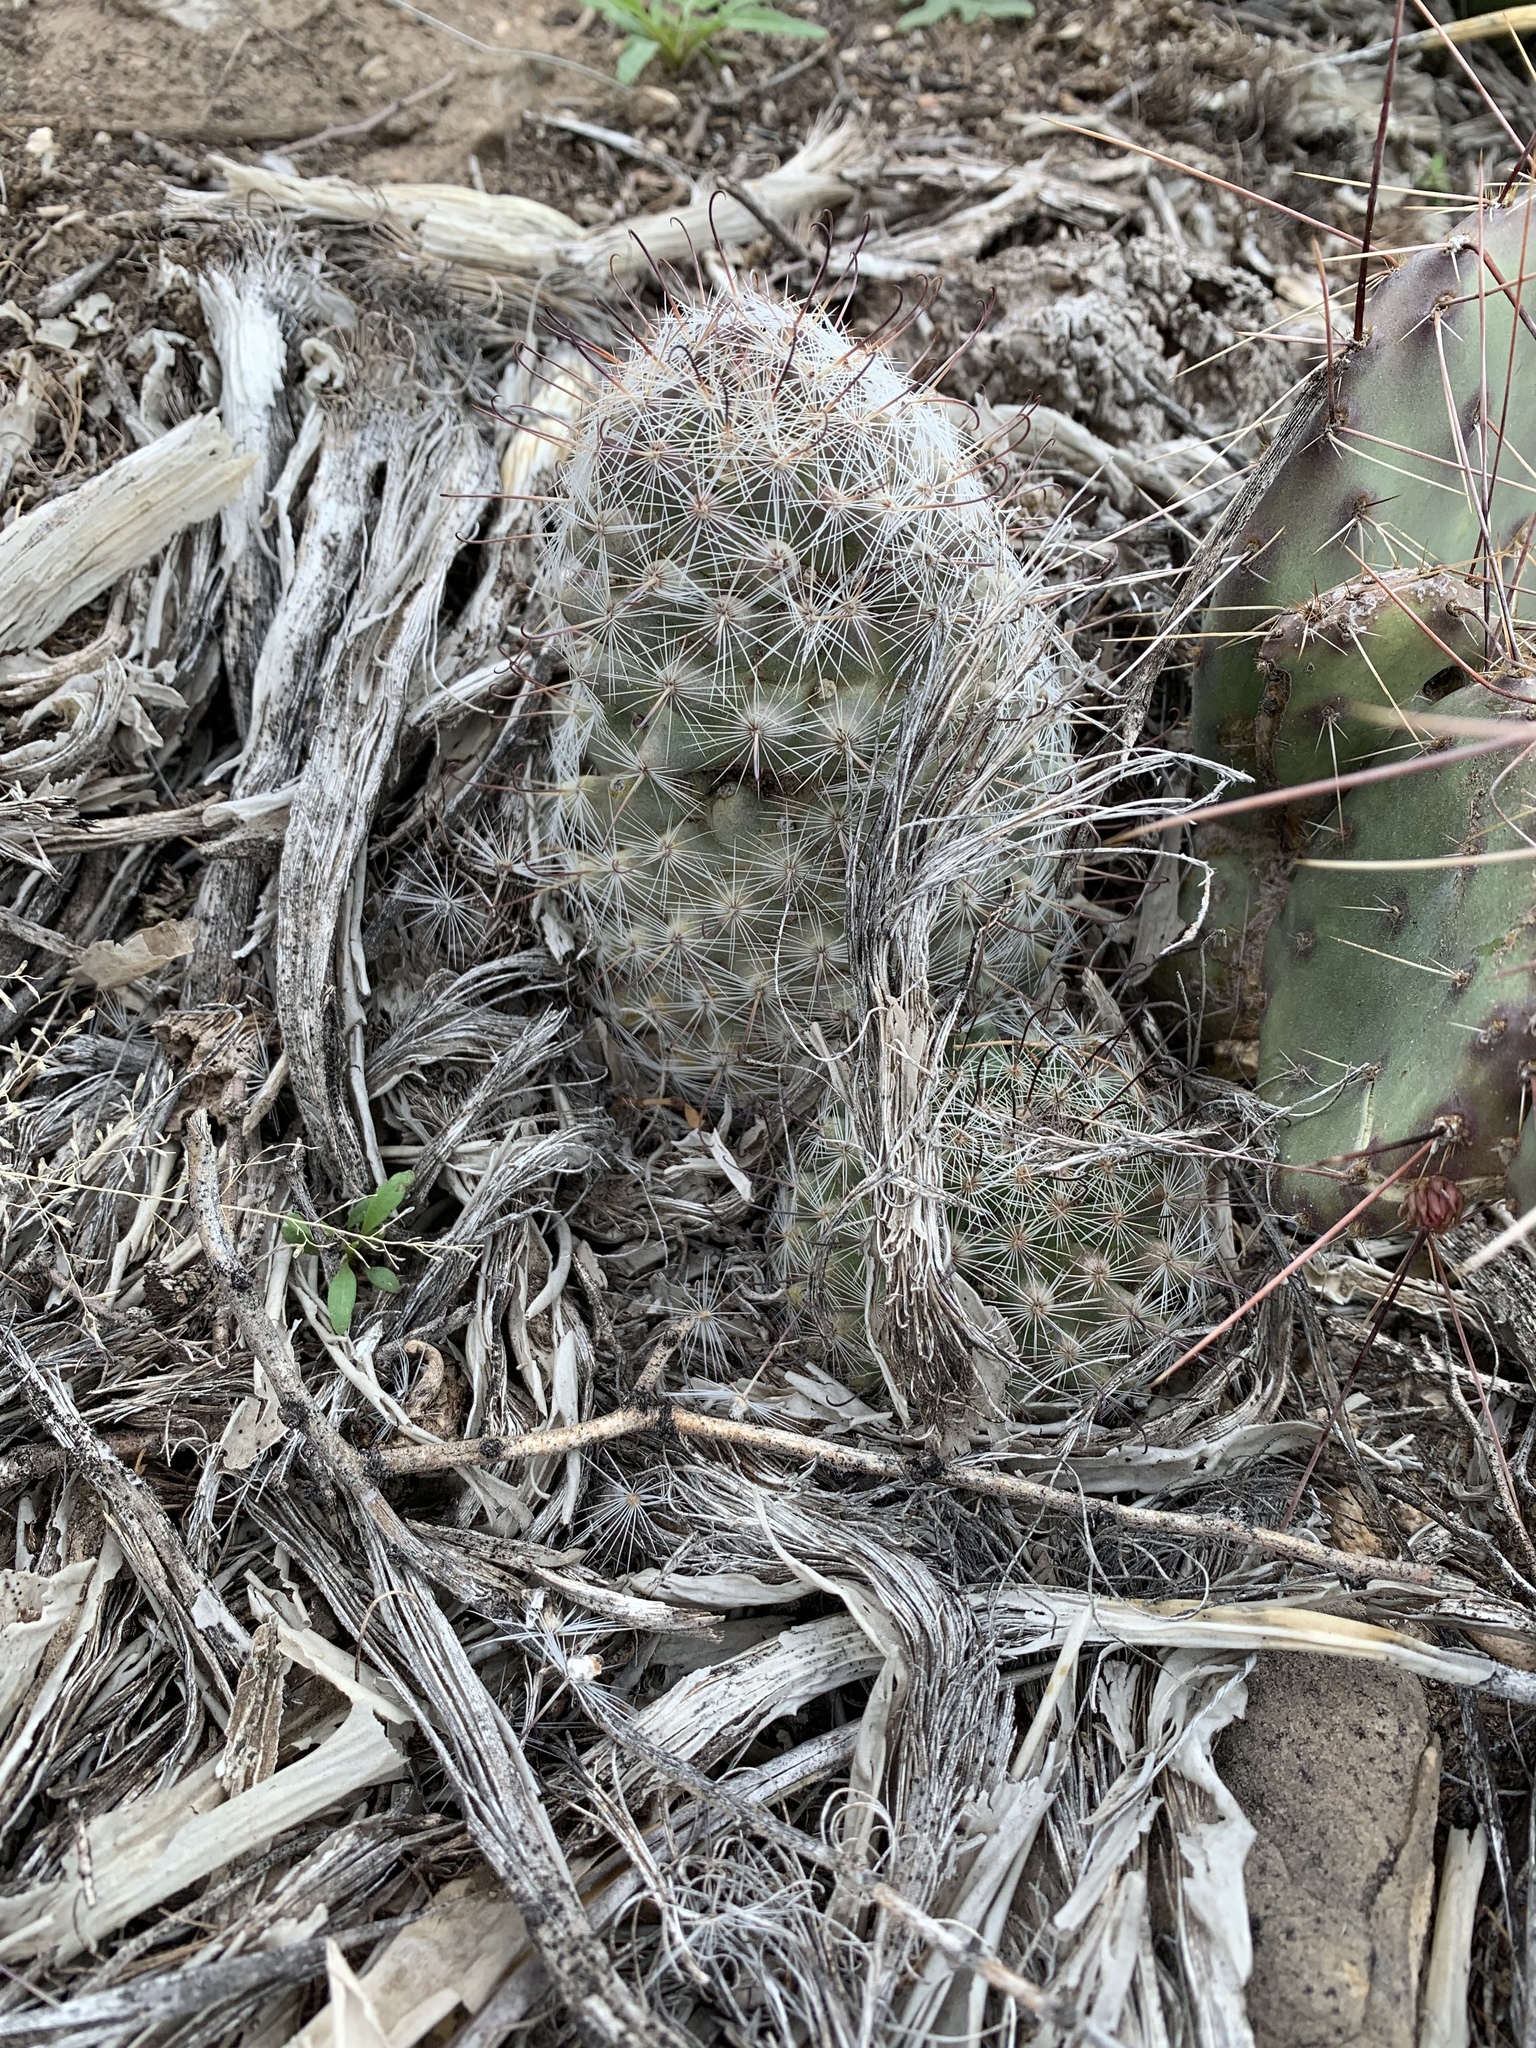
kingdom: Plantae
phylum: Tracheophyta
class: Magnoliopsida
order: Caryophyllales
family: Cactaceae
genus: Cochemiea
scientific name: Cochemiea grahamii
